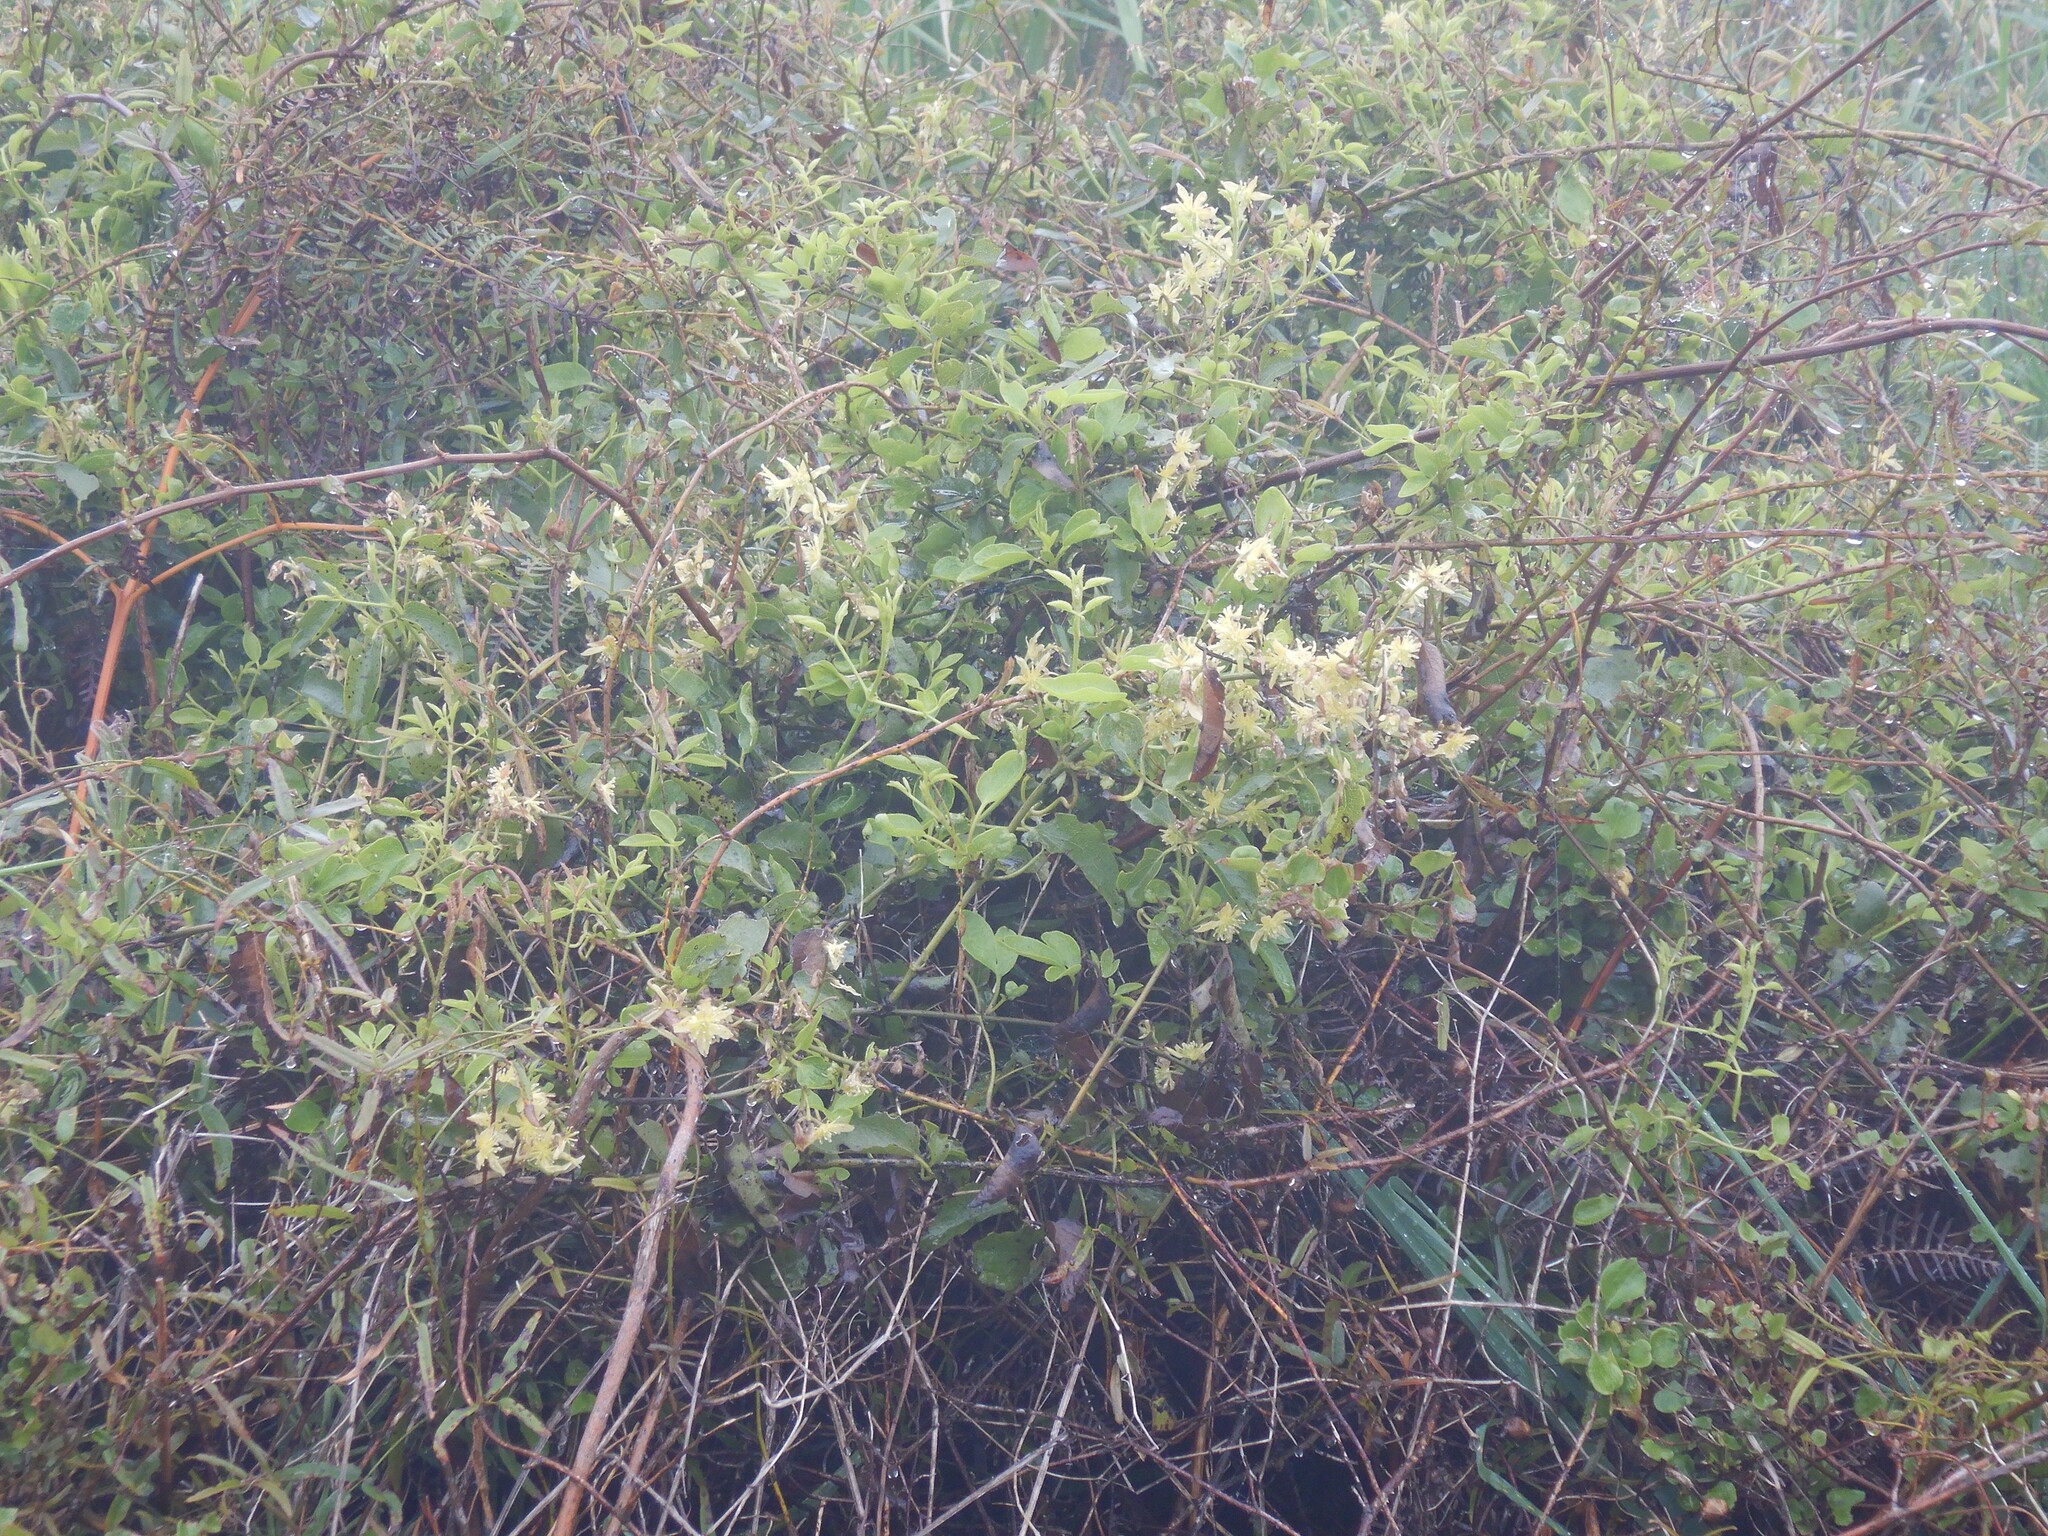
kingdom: Plantae
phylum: Tracheophyta
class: Magnoliopsida
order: Ranunculales
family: Ranunculaceae
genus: Clematis
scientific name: Clematis foetida
